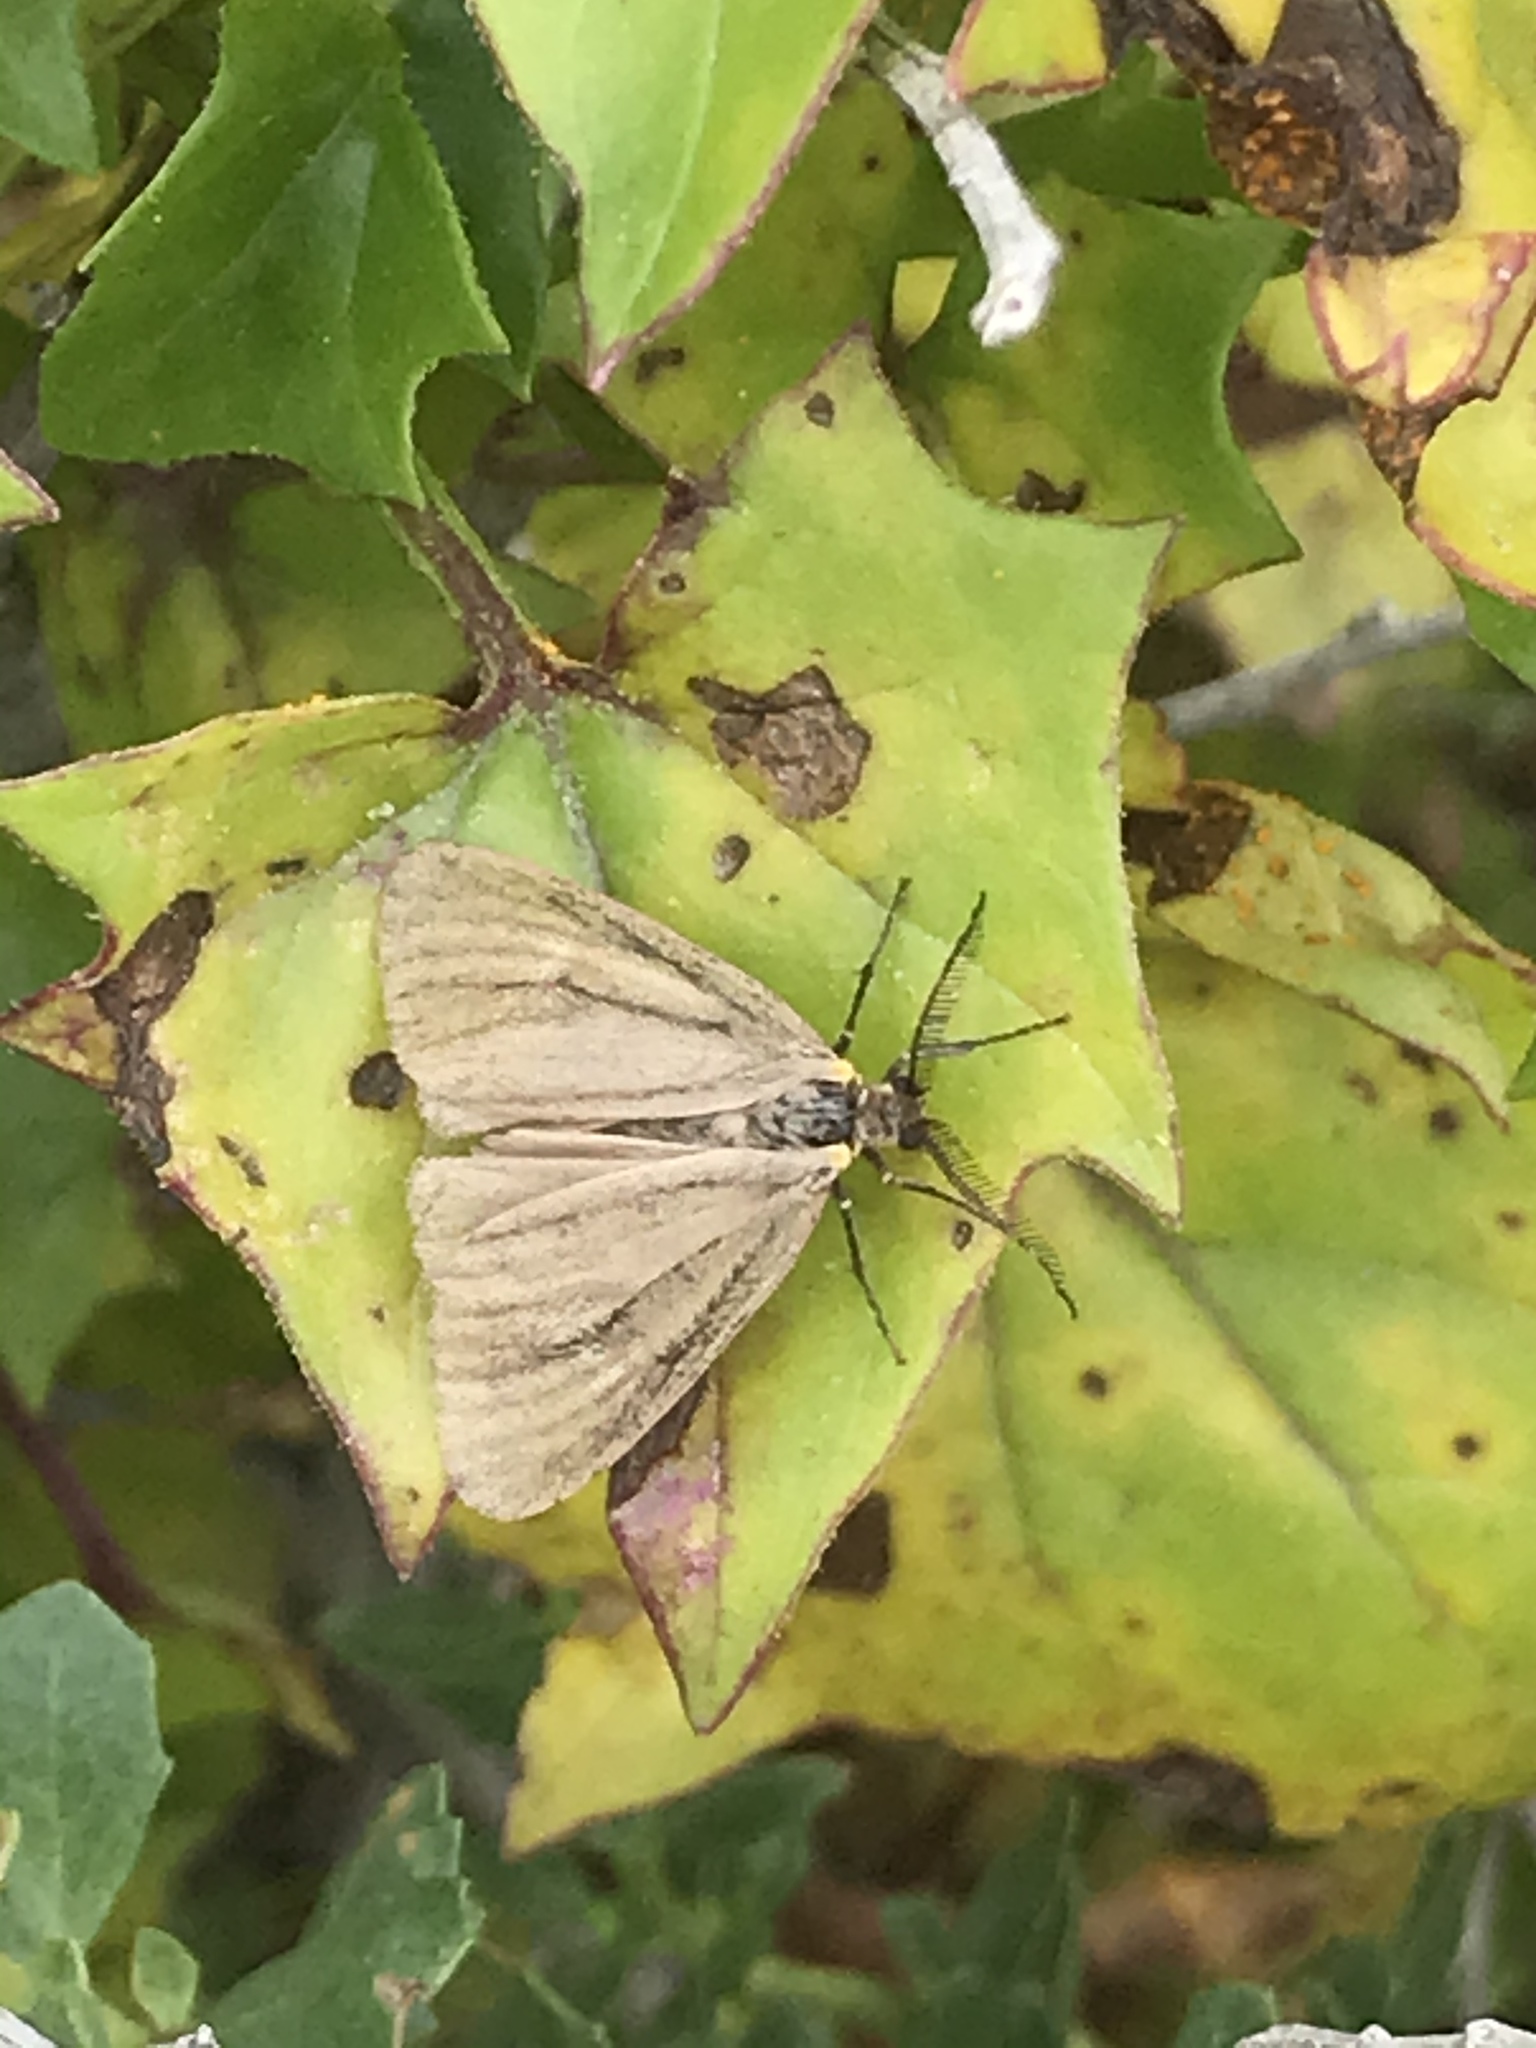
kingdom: Animalia
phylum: Arthropoda
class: Insecta
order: Lepidoptera
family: Notodontidae
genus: Phryganidia
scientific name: Phryganidia californica
